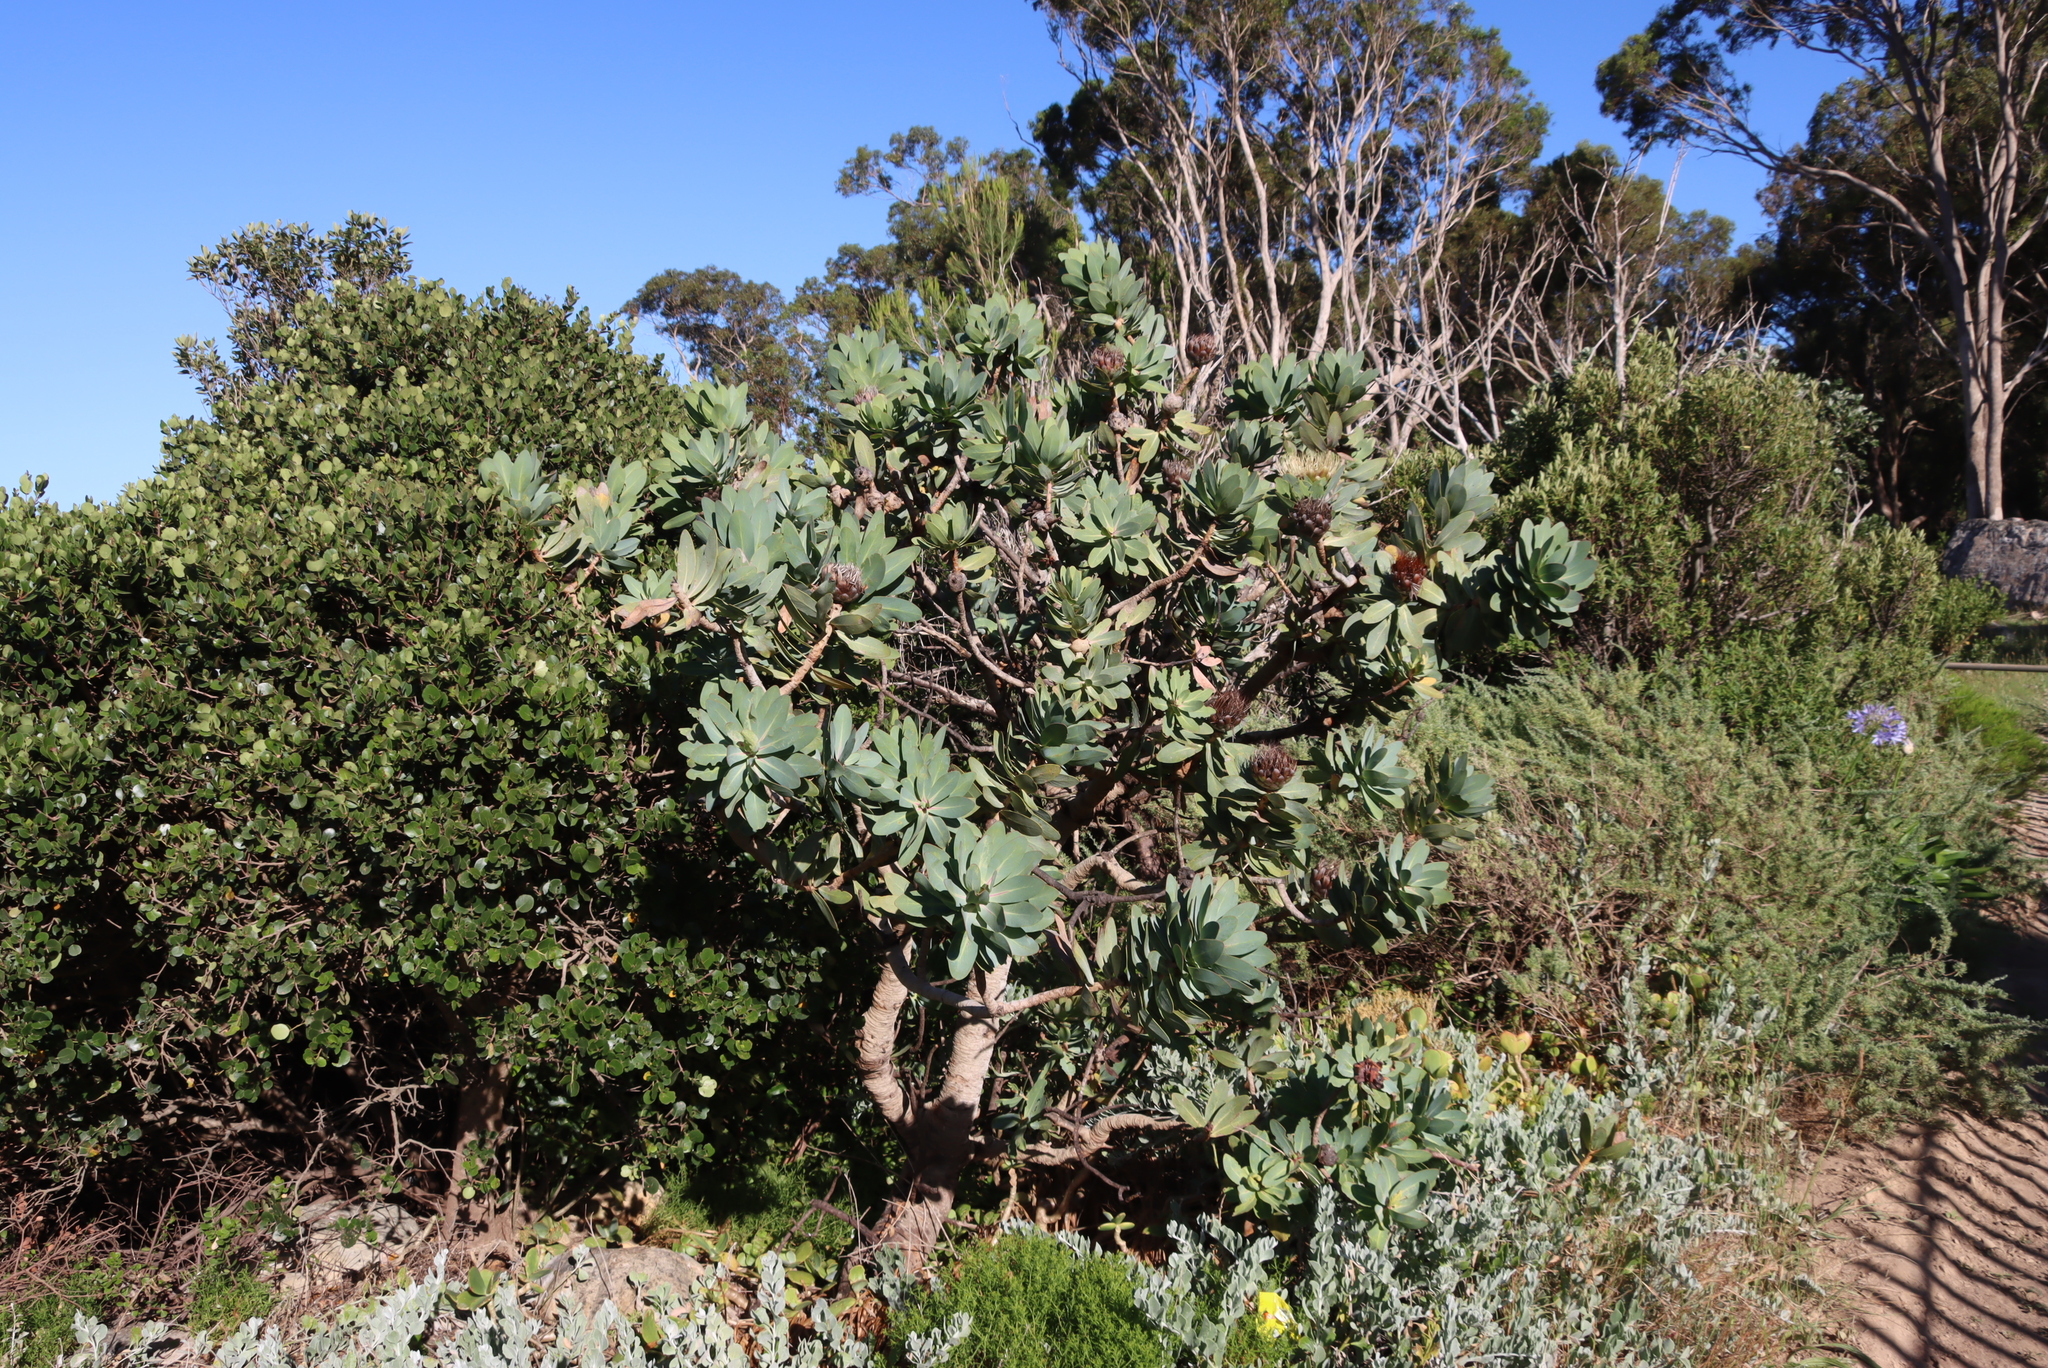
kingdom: Plantae
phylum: Tracheophyta
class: Magnoliopsida
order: Proteales
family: Proteaceae
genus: Protea
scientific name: Protea nitida
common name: Tree protea
